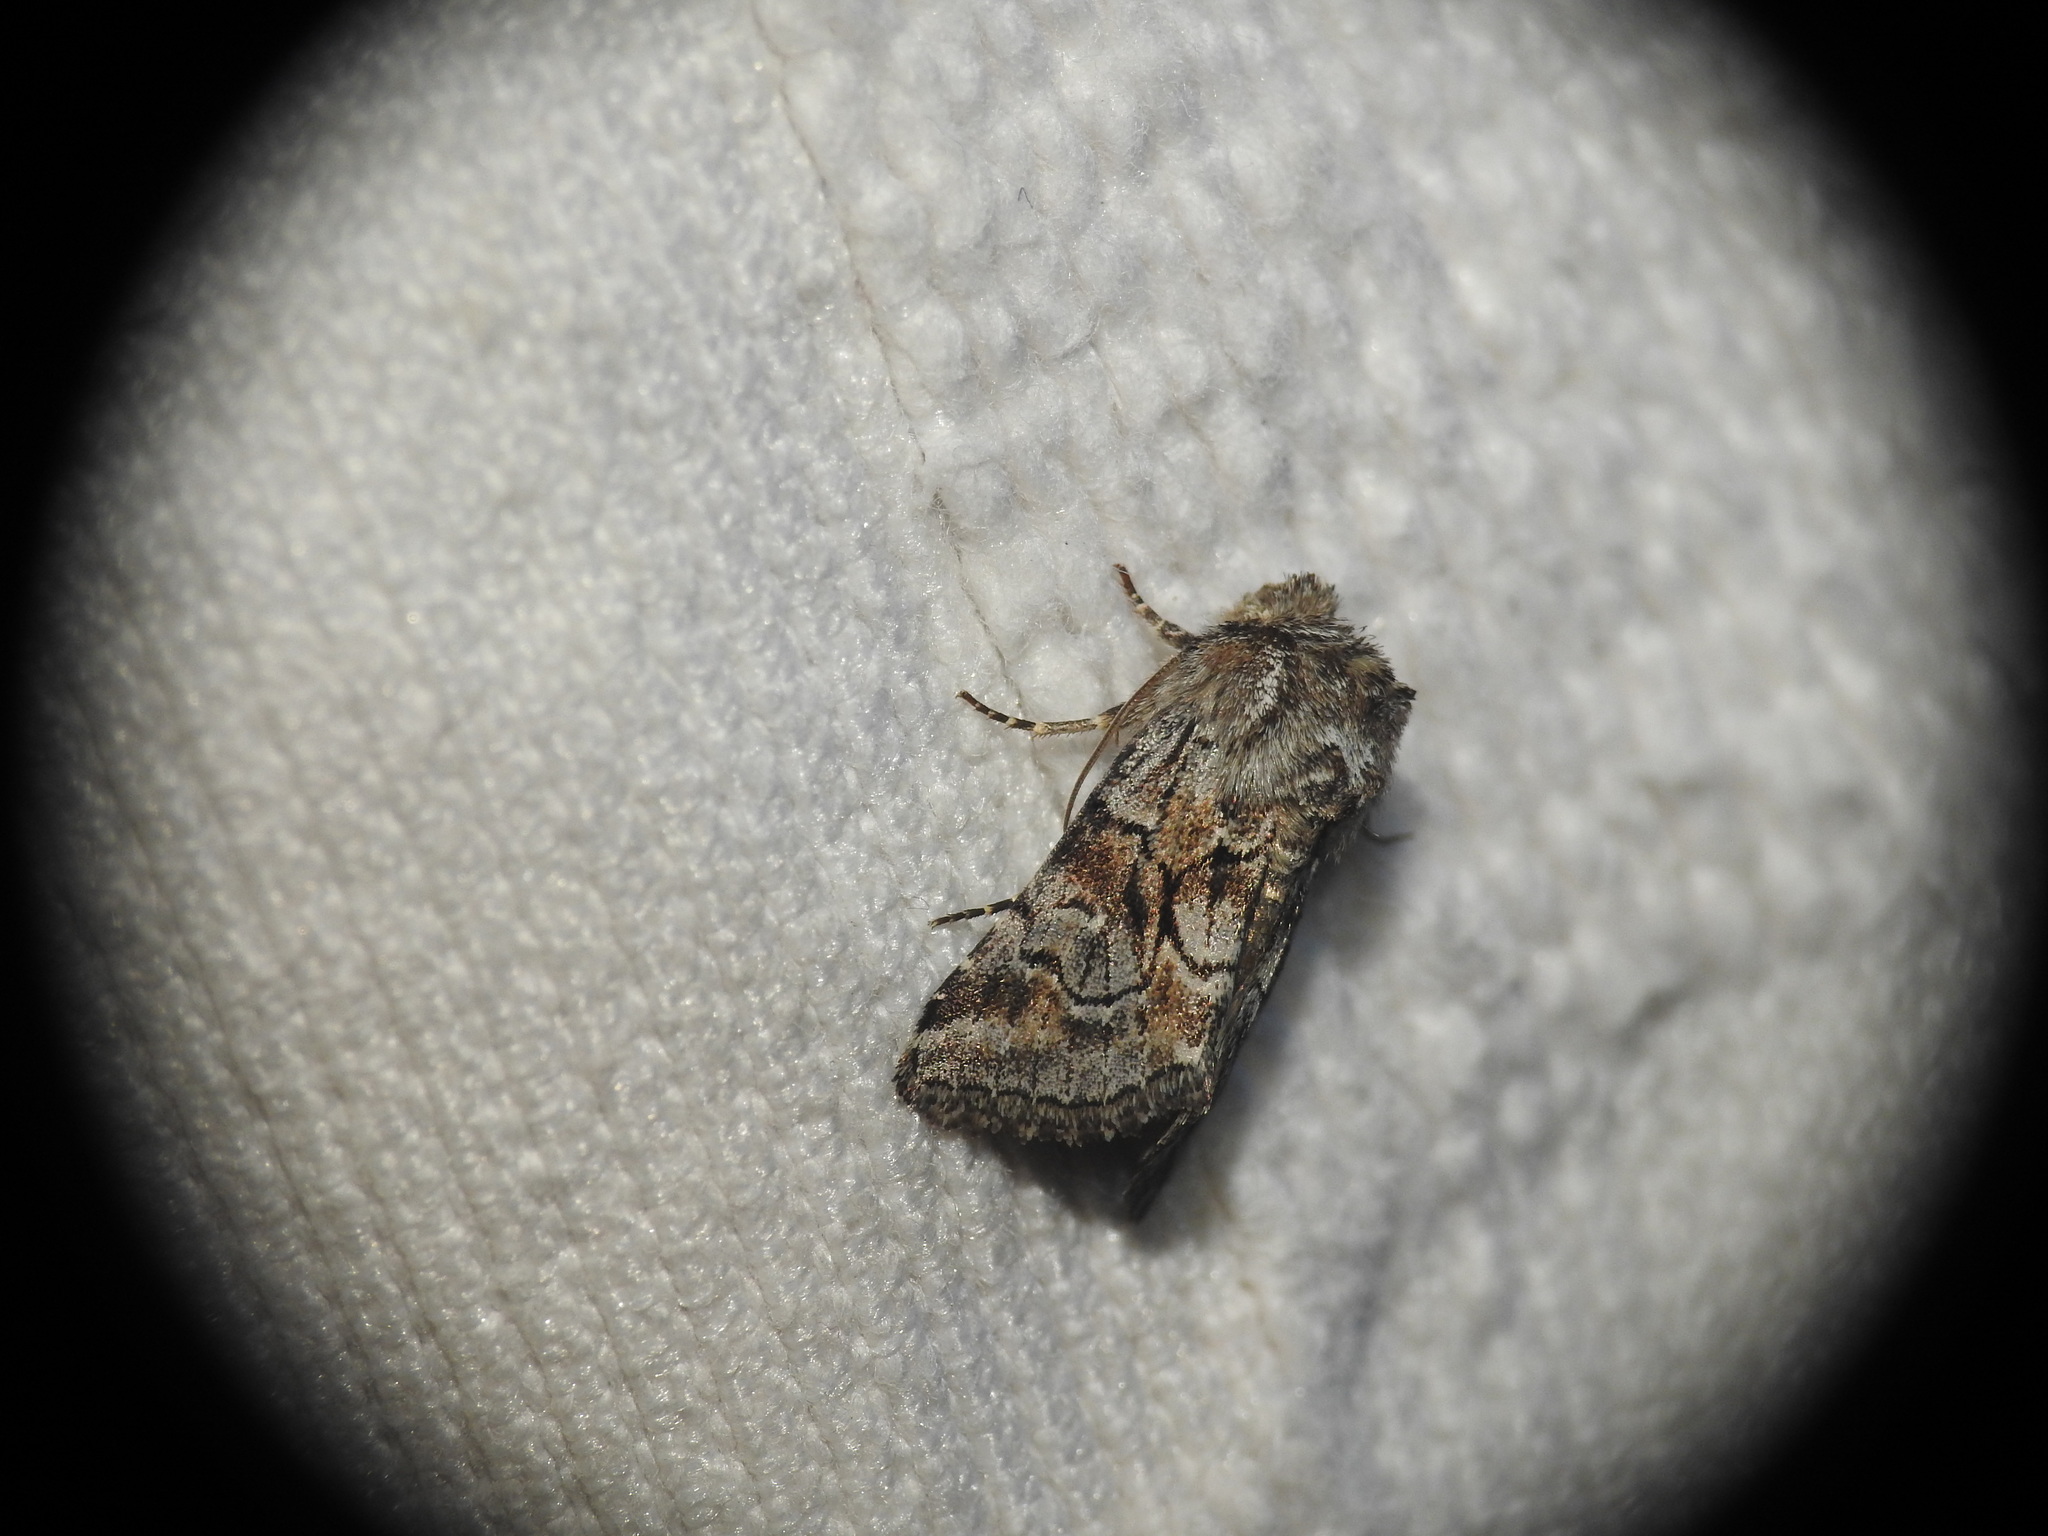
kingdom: Animalia
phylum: Arthropoda
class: Insecta
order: Lepidoptera
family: Noctuidae
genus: Cleonymia
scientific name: Cleonymia yvanii
